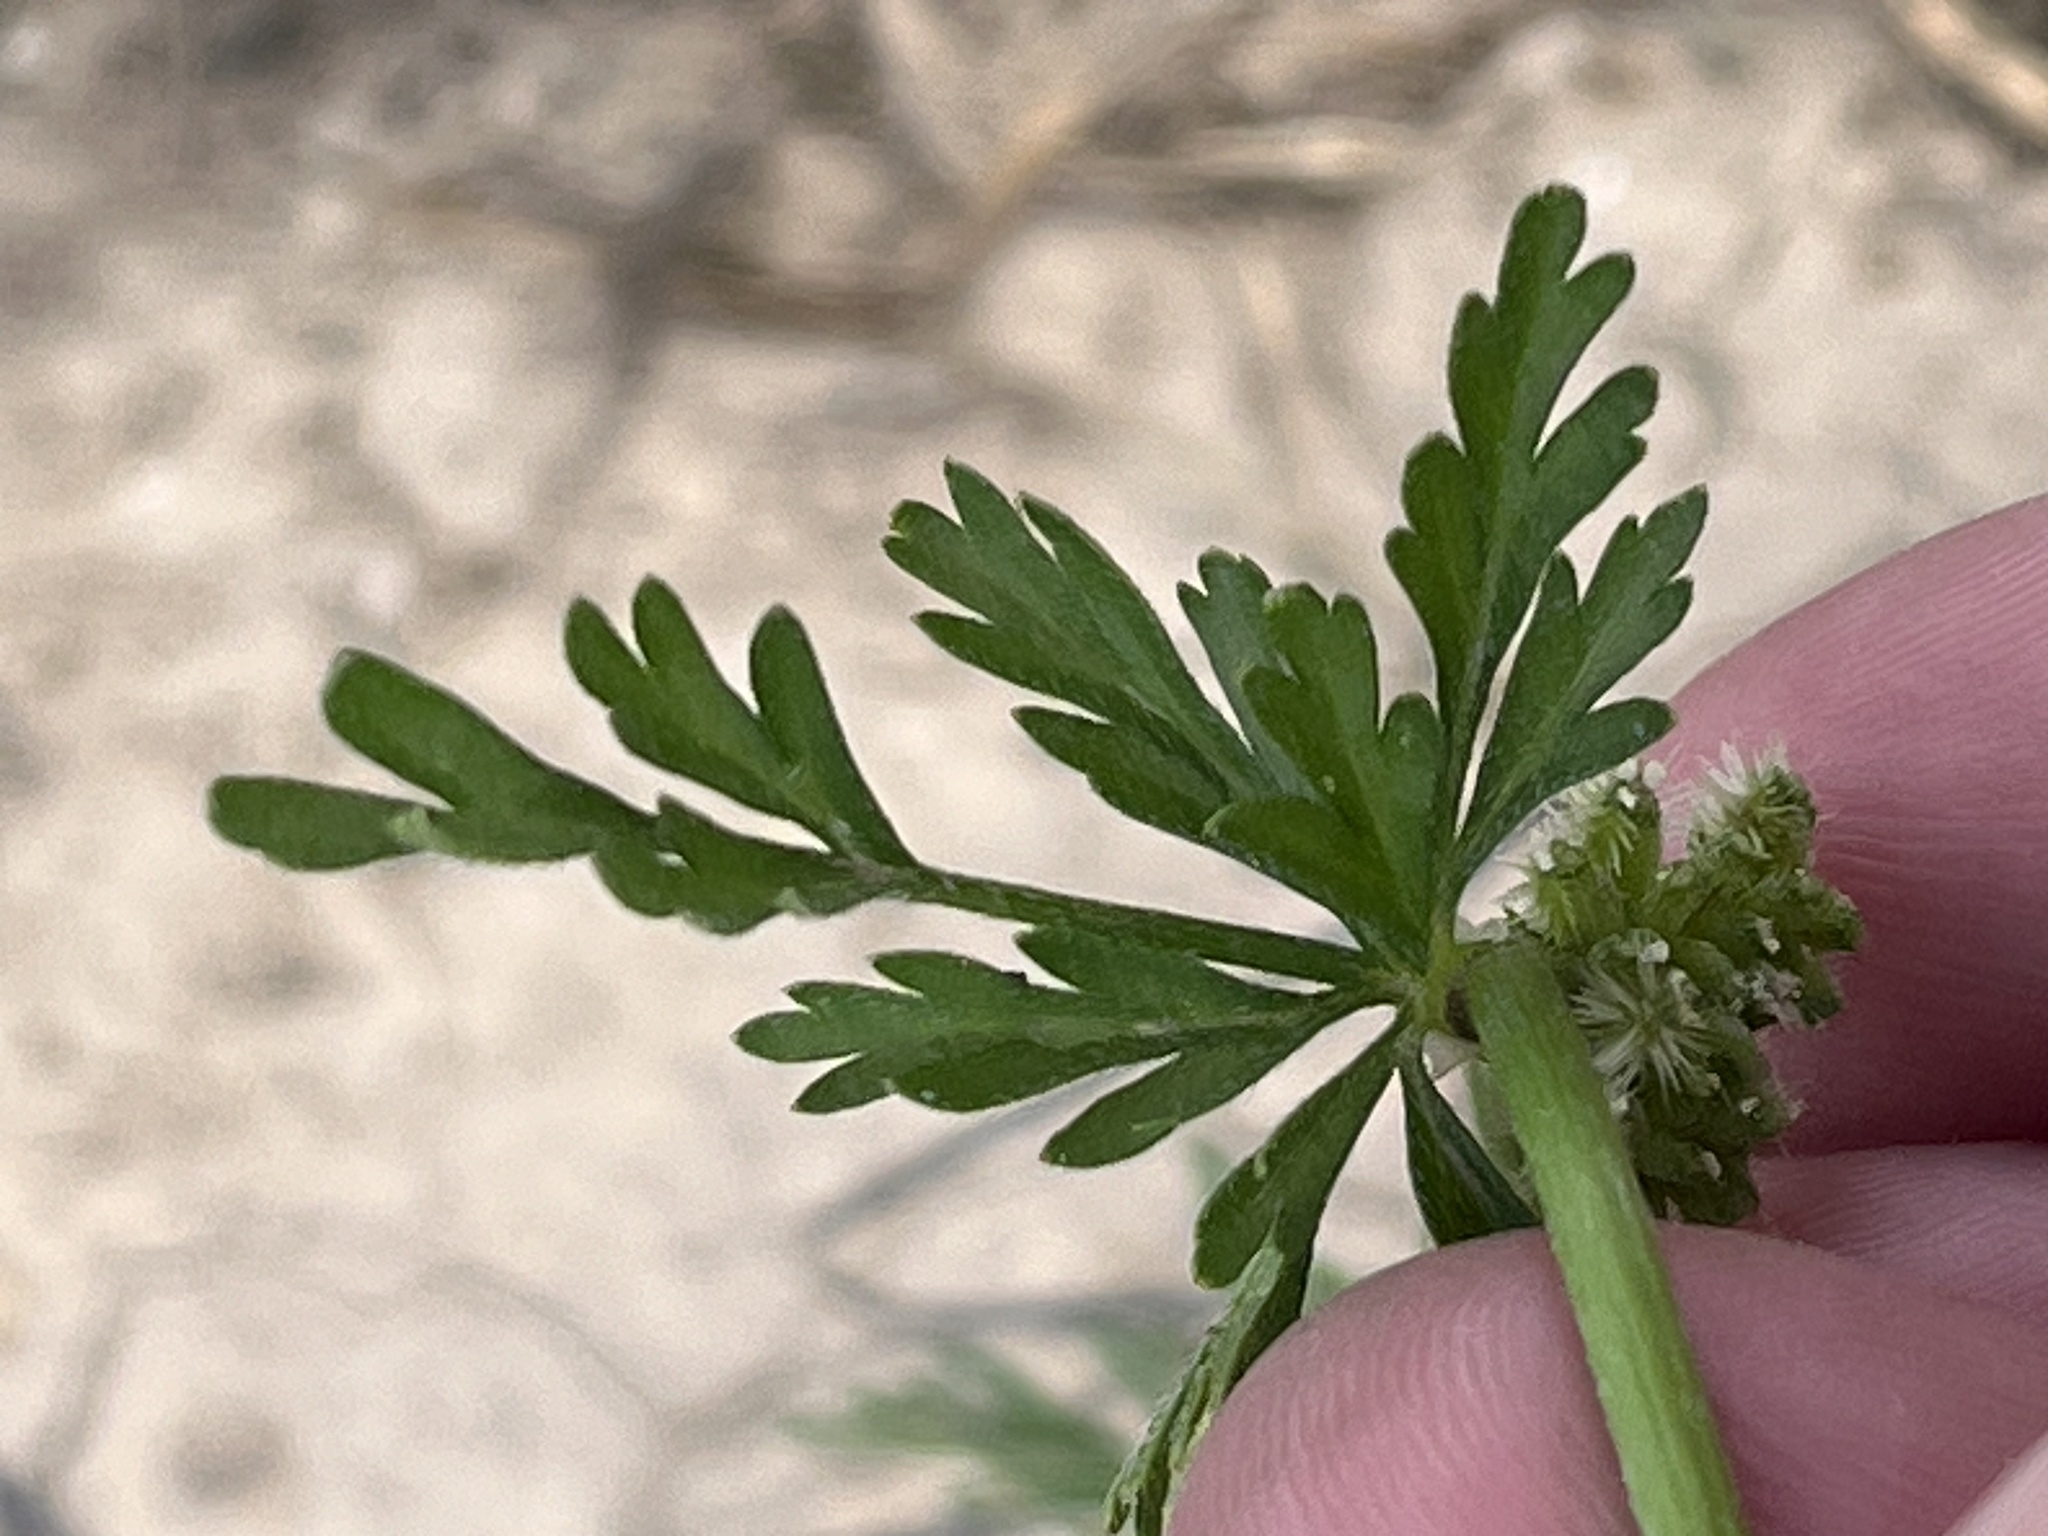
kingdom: Plantae
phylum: Tracheophyta
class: Magnoliopsida
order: Apiales
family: Apiaceae
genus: Torilis
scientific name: Torilis nodosa
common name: Knotted hedge-parsley
